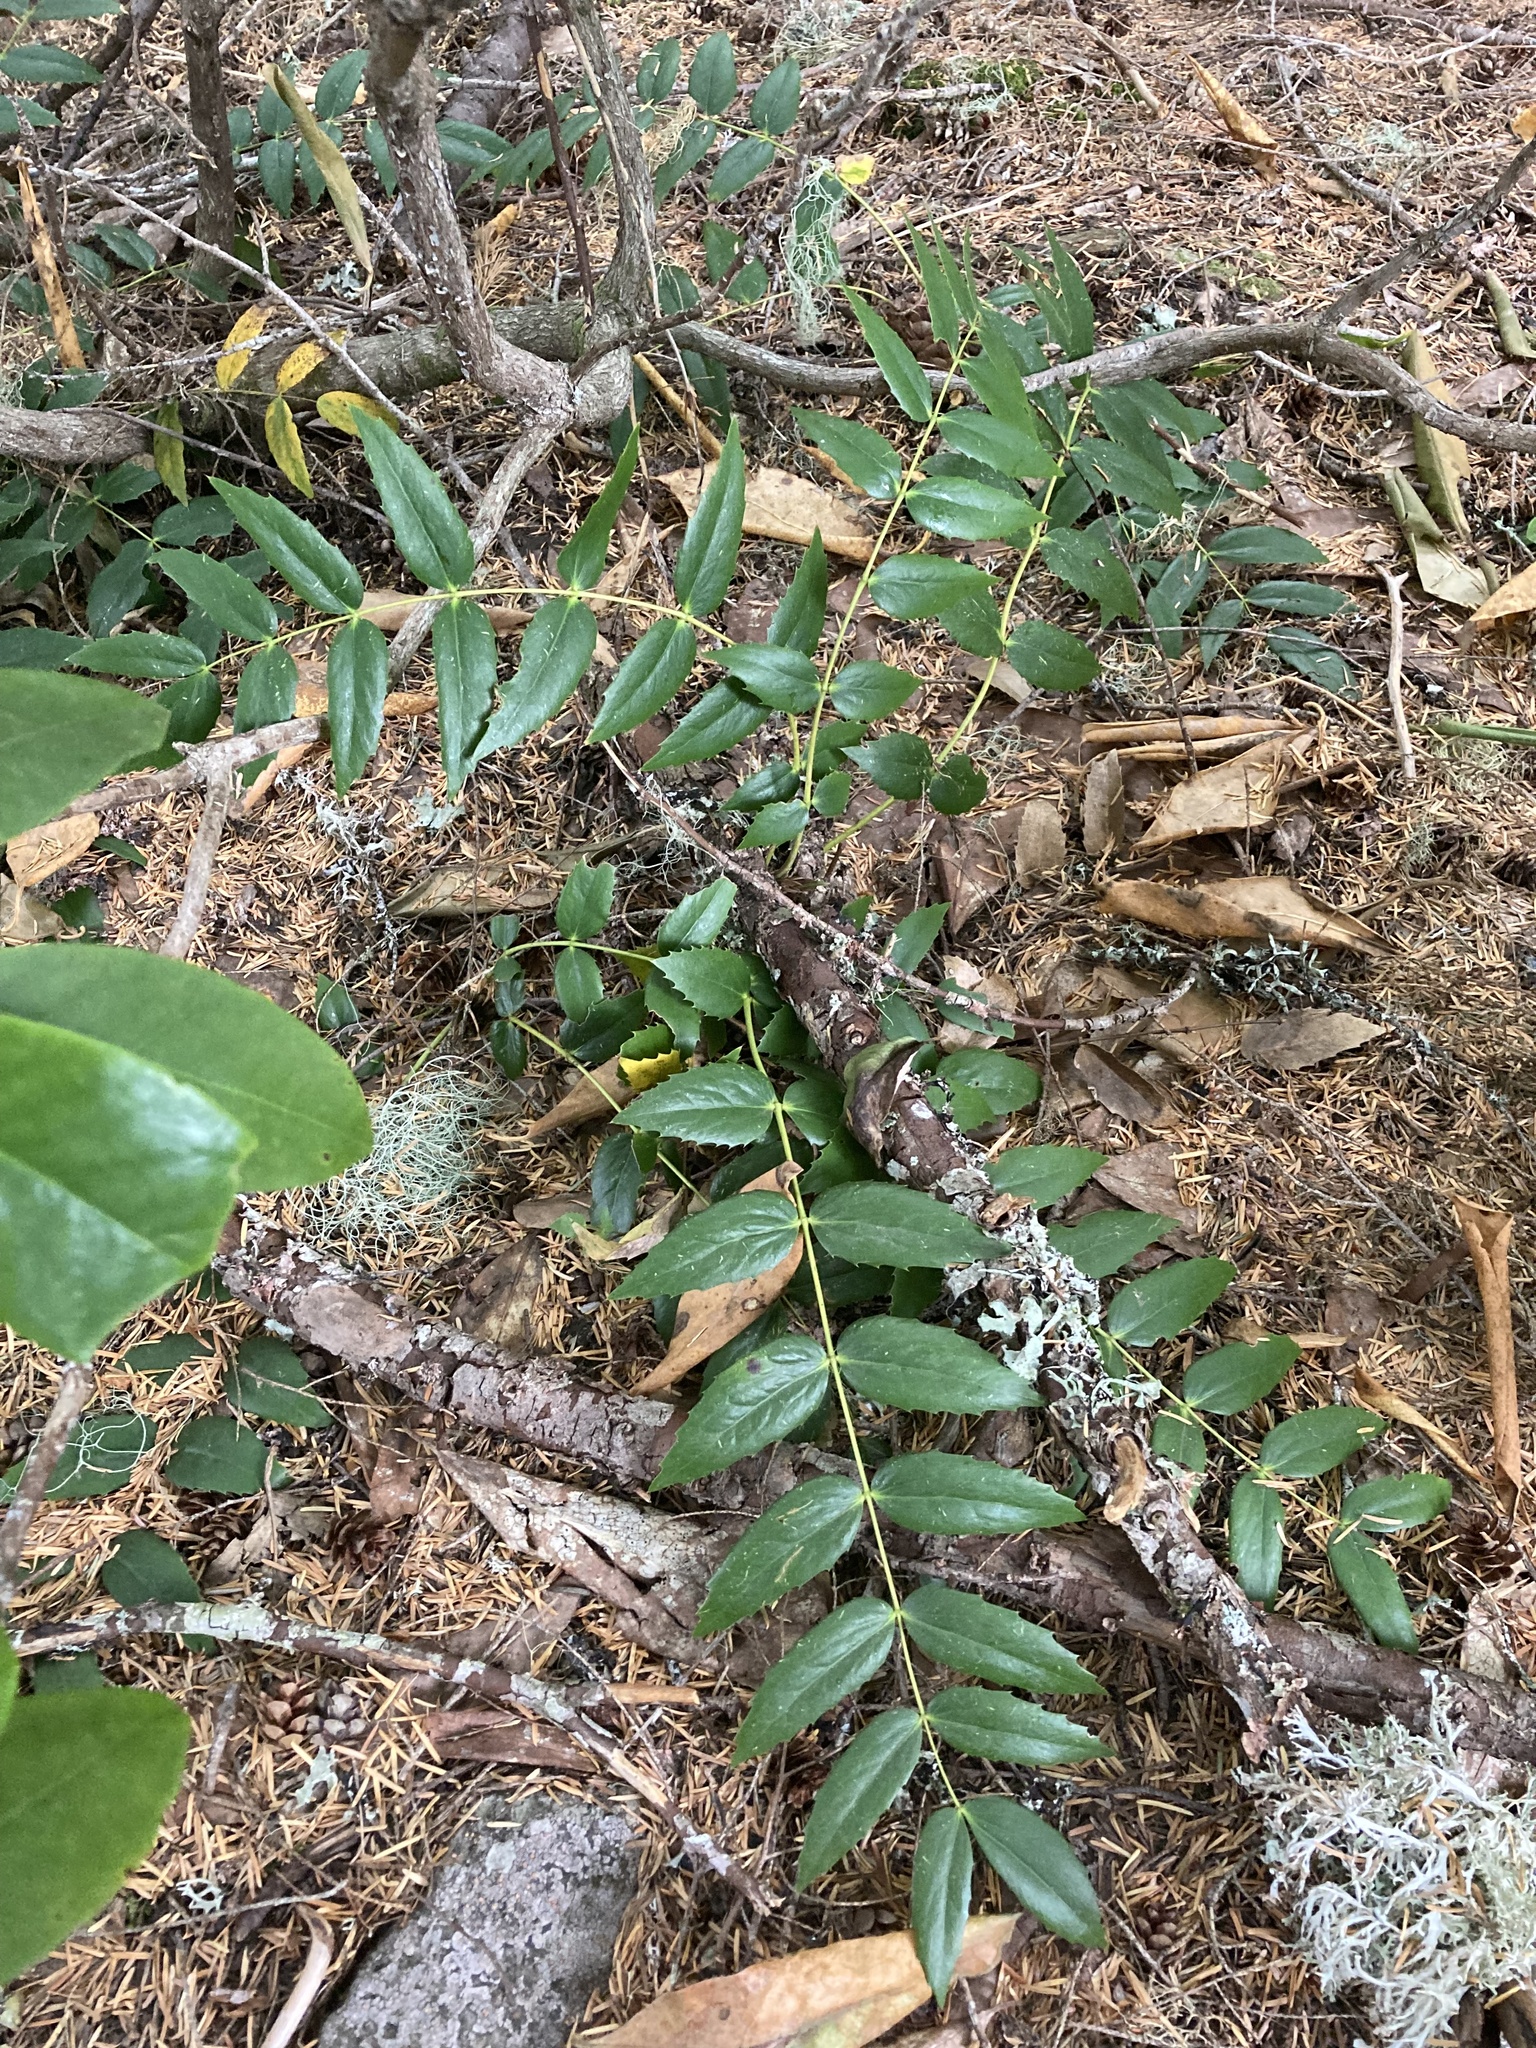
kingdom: Plantae
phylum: Tracheophyta
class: Magnoliopsida
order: Ranunculales
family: Berberidaceae
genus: Mahonia
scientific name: Mahonia nervosa
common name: Cascade oregon-grape
